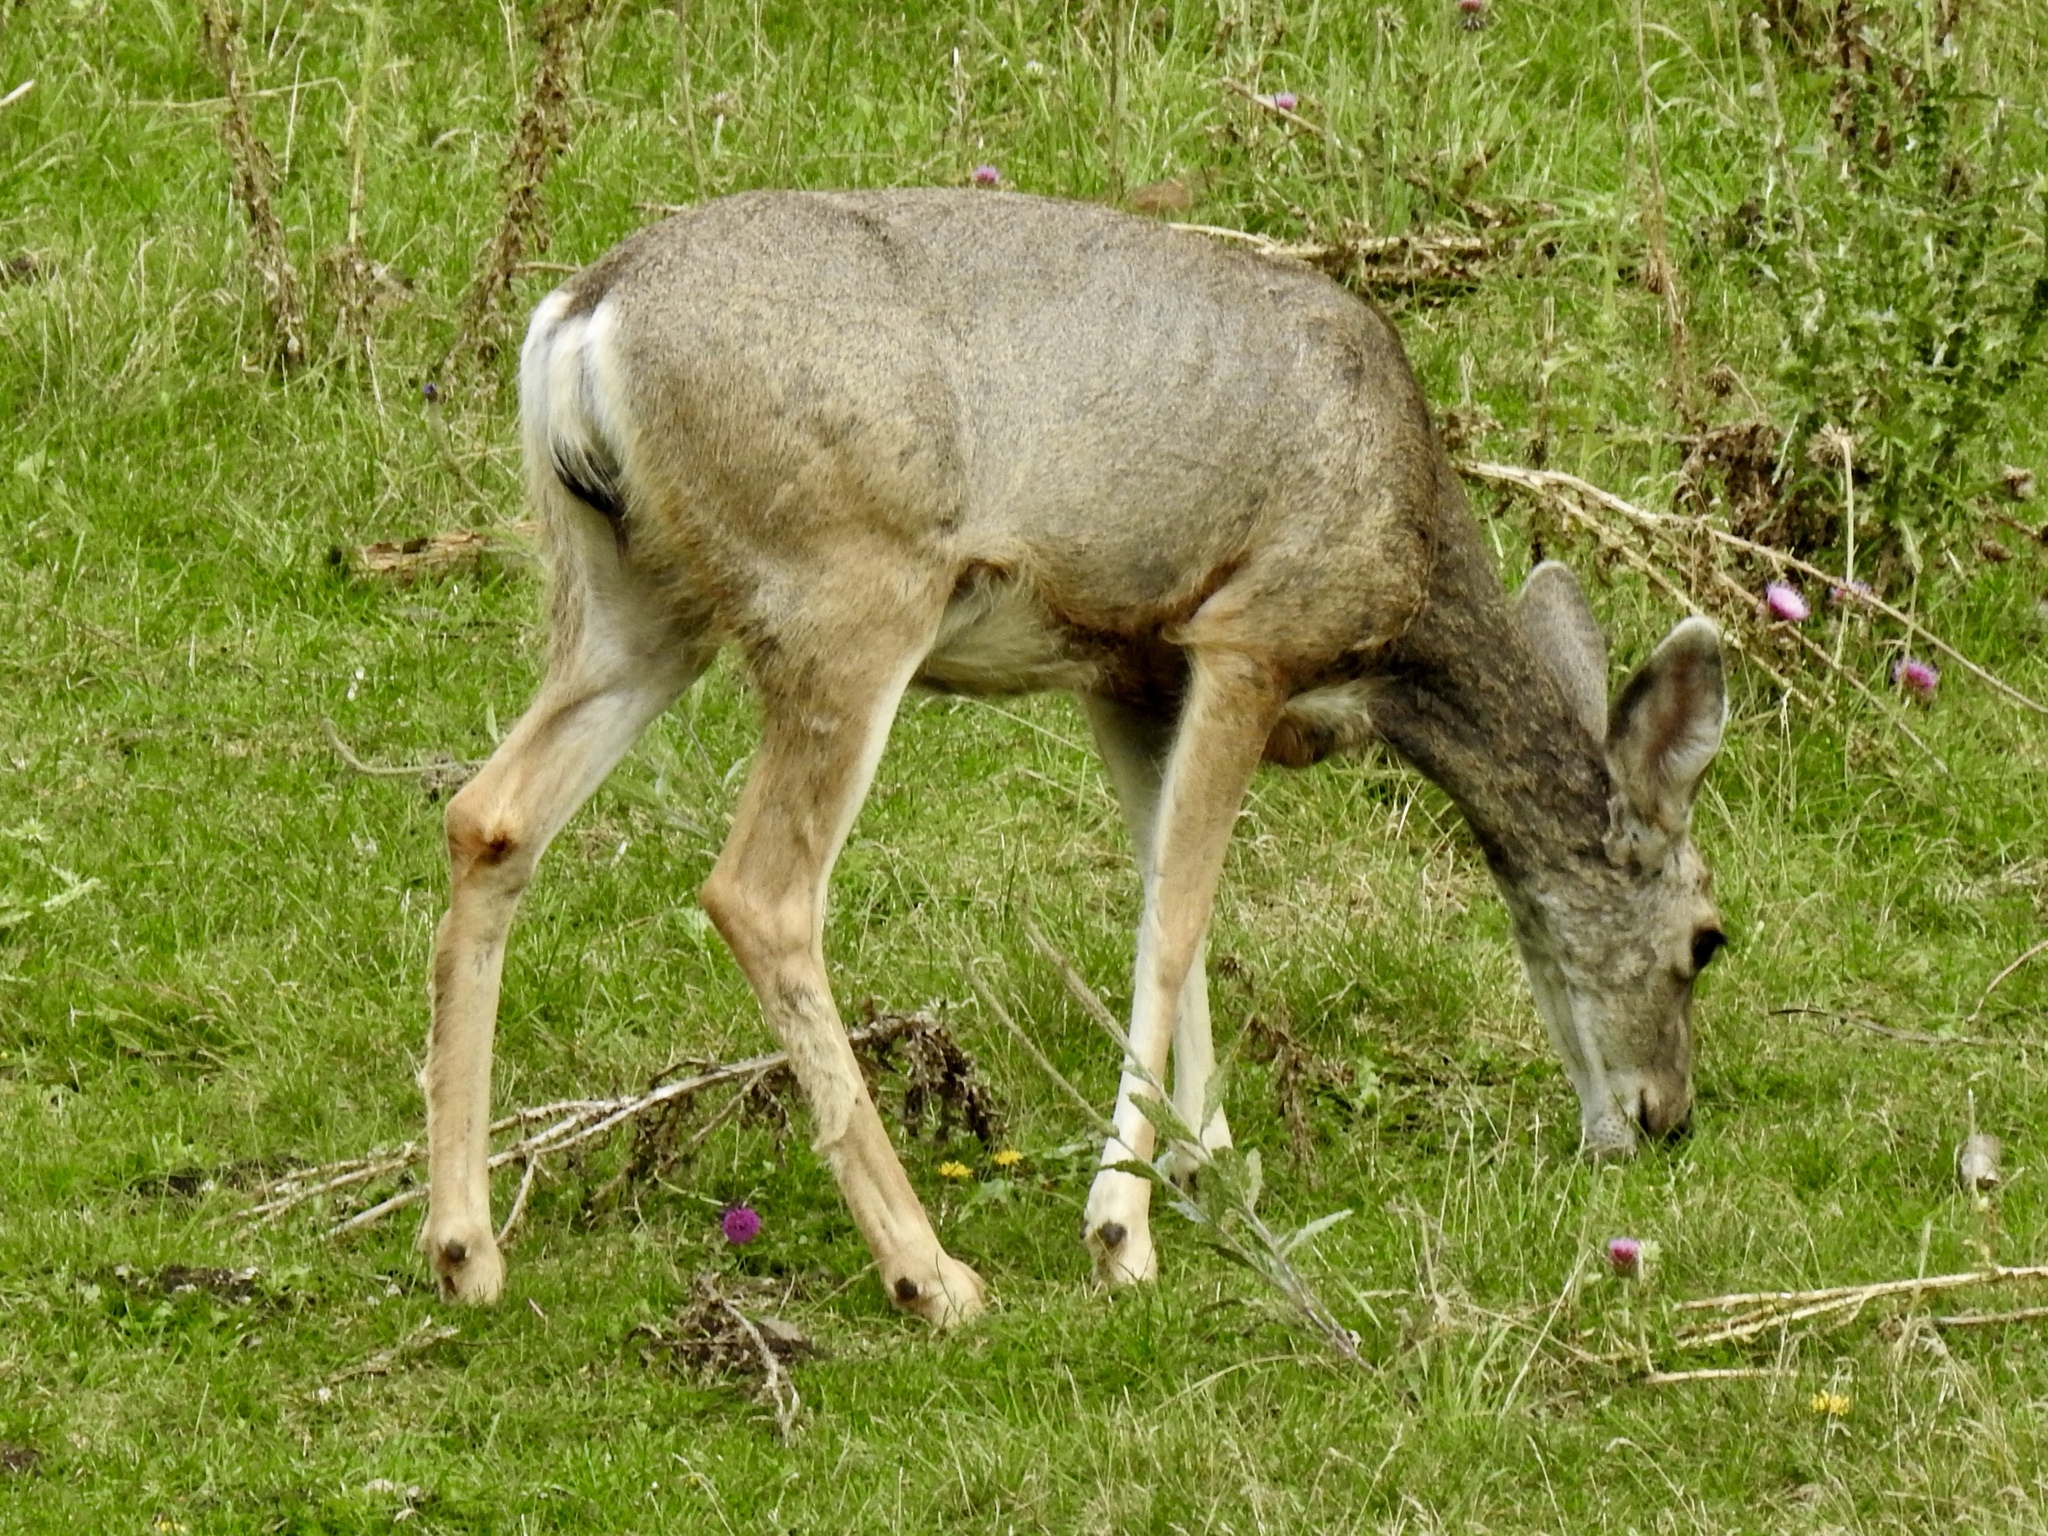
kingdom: Animalia
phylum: Chordata
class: Mammalia
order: Artiodactyla
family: Cervidae
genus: Odocoileus
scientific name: Odocoileus hemionus
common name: Mule deer
